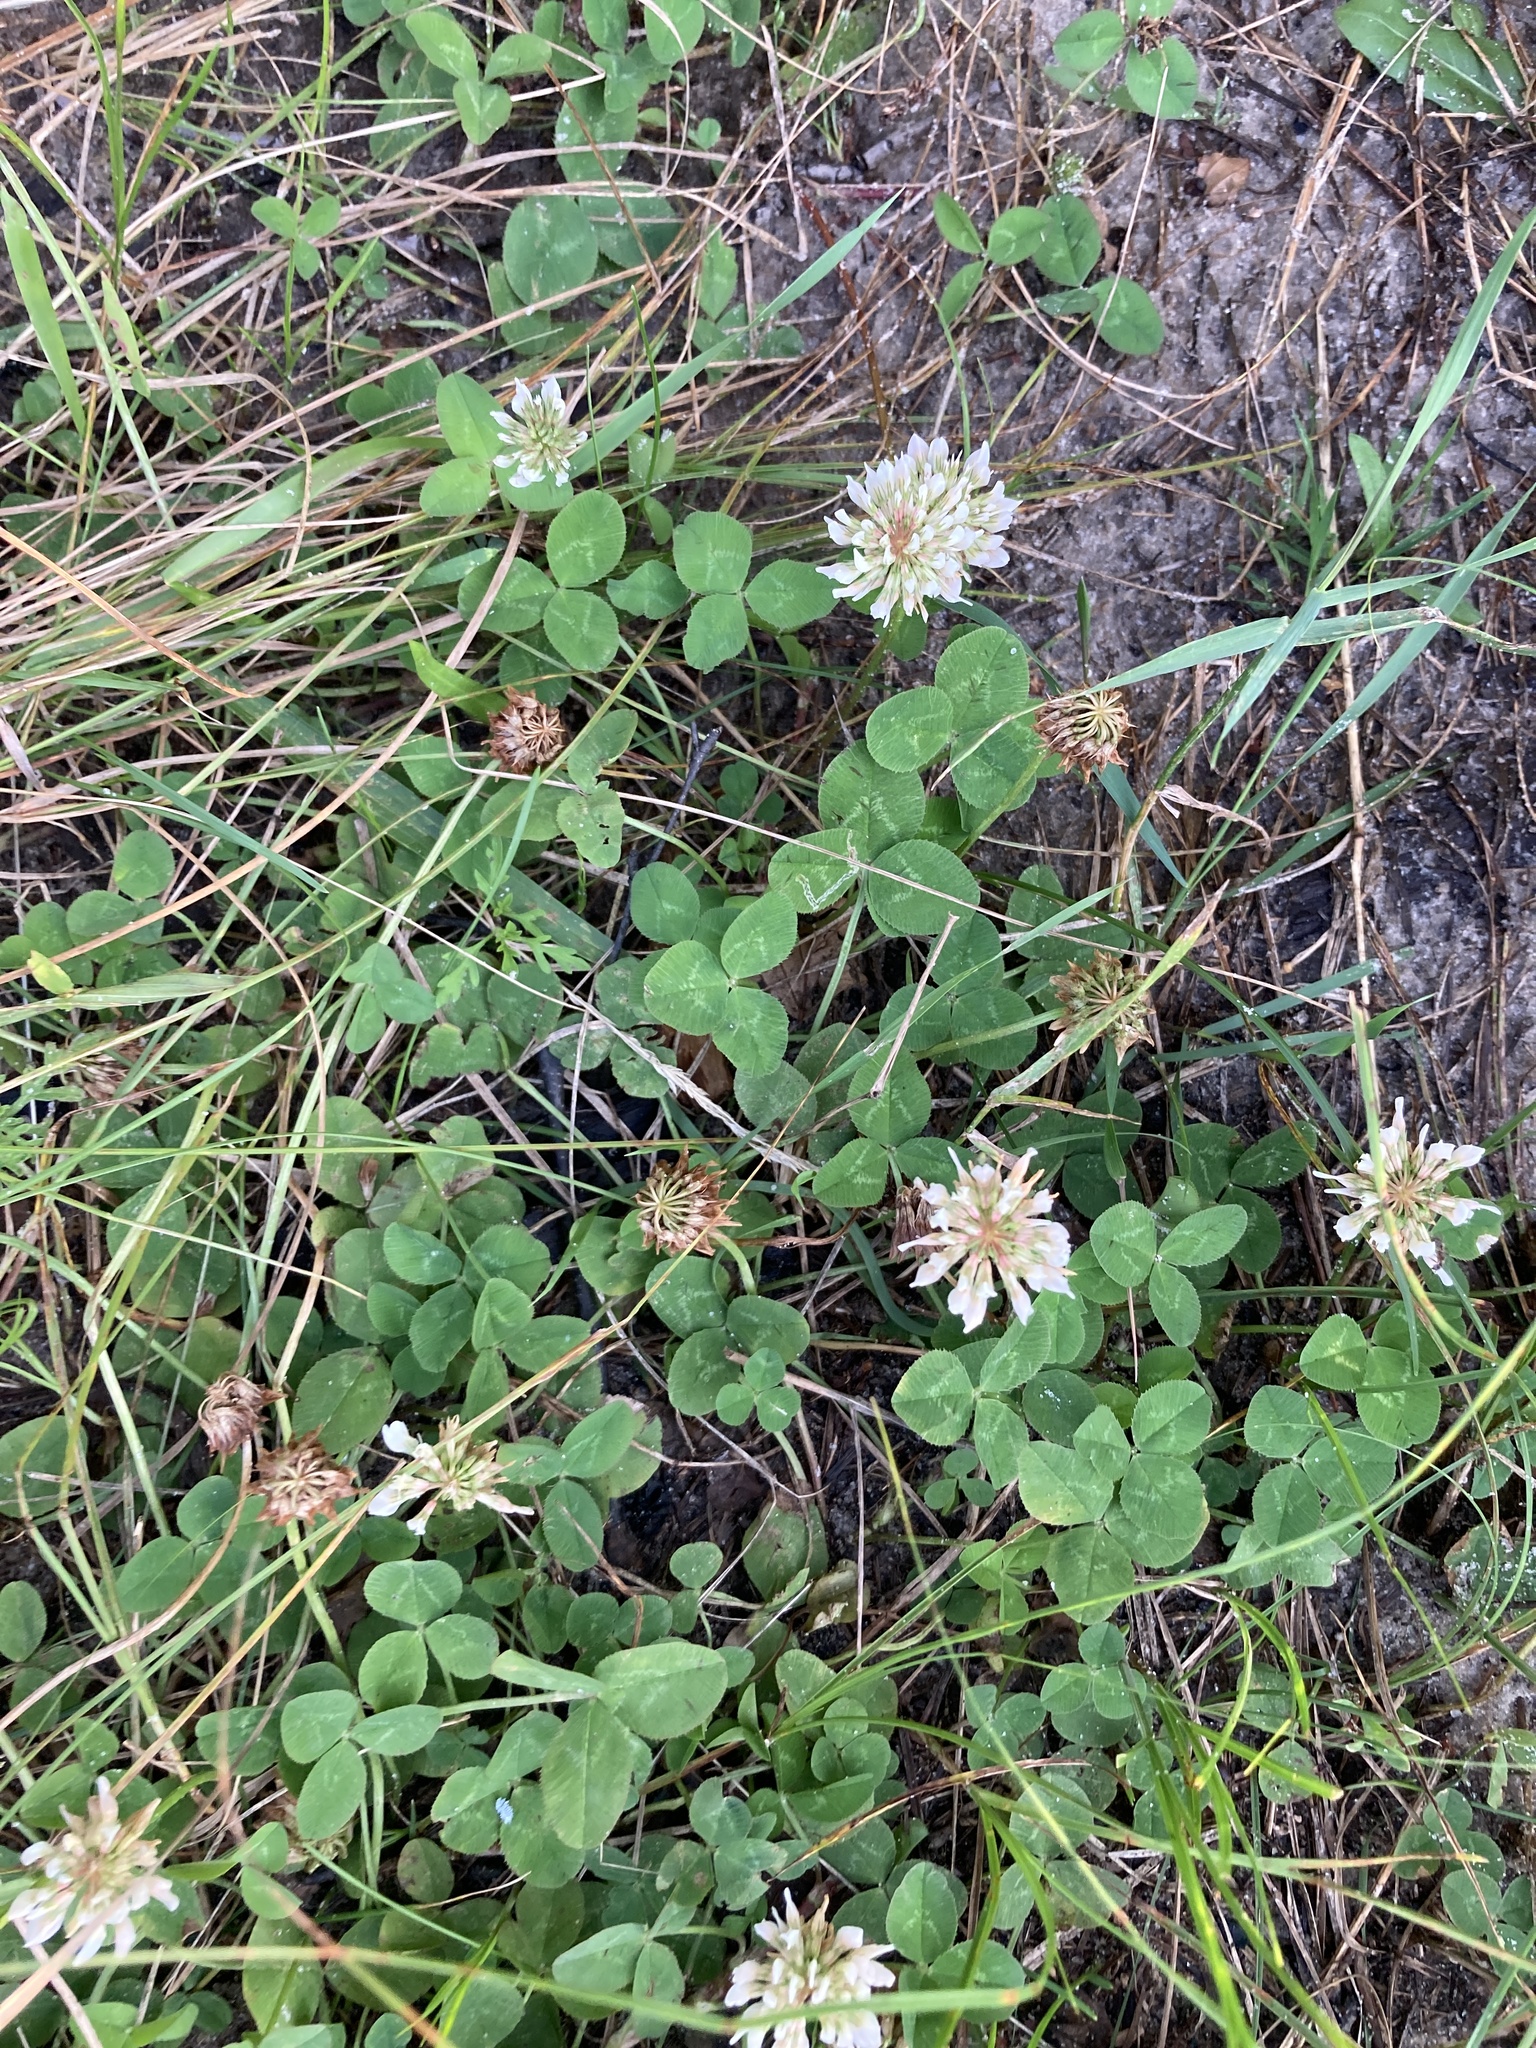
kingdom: Plantae
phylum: Tracheophyta
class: Magnoliopsida
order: Fabales
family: Fabaceae
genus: Trifolium
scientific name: Trifolium repens
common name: White clover
